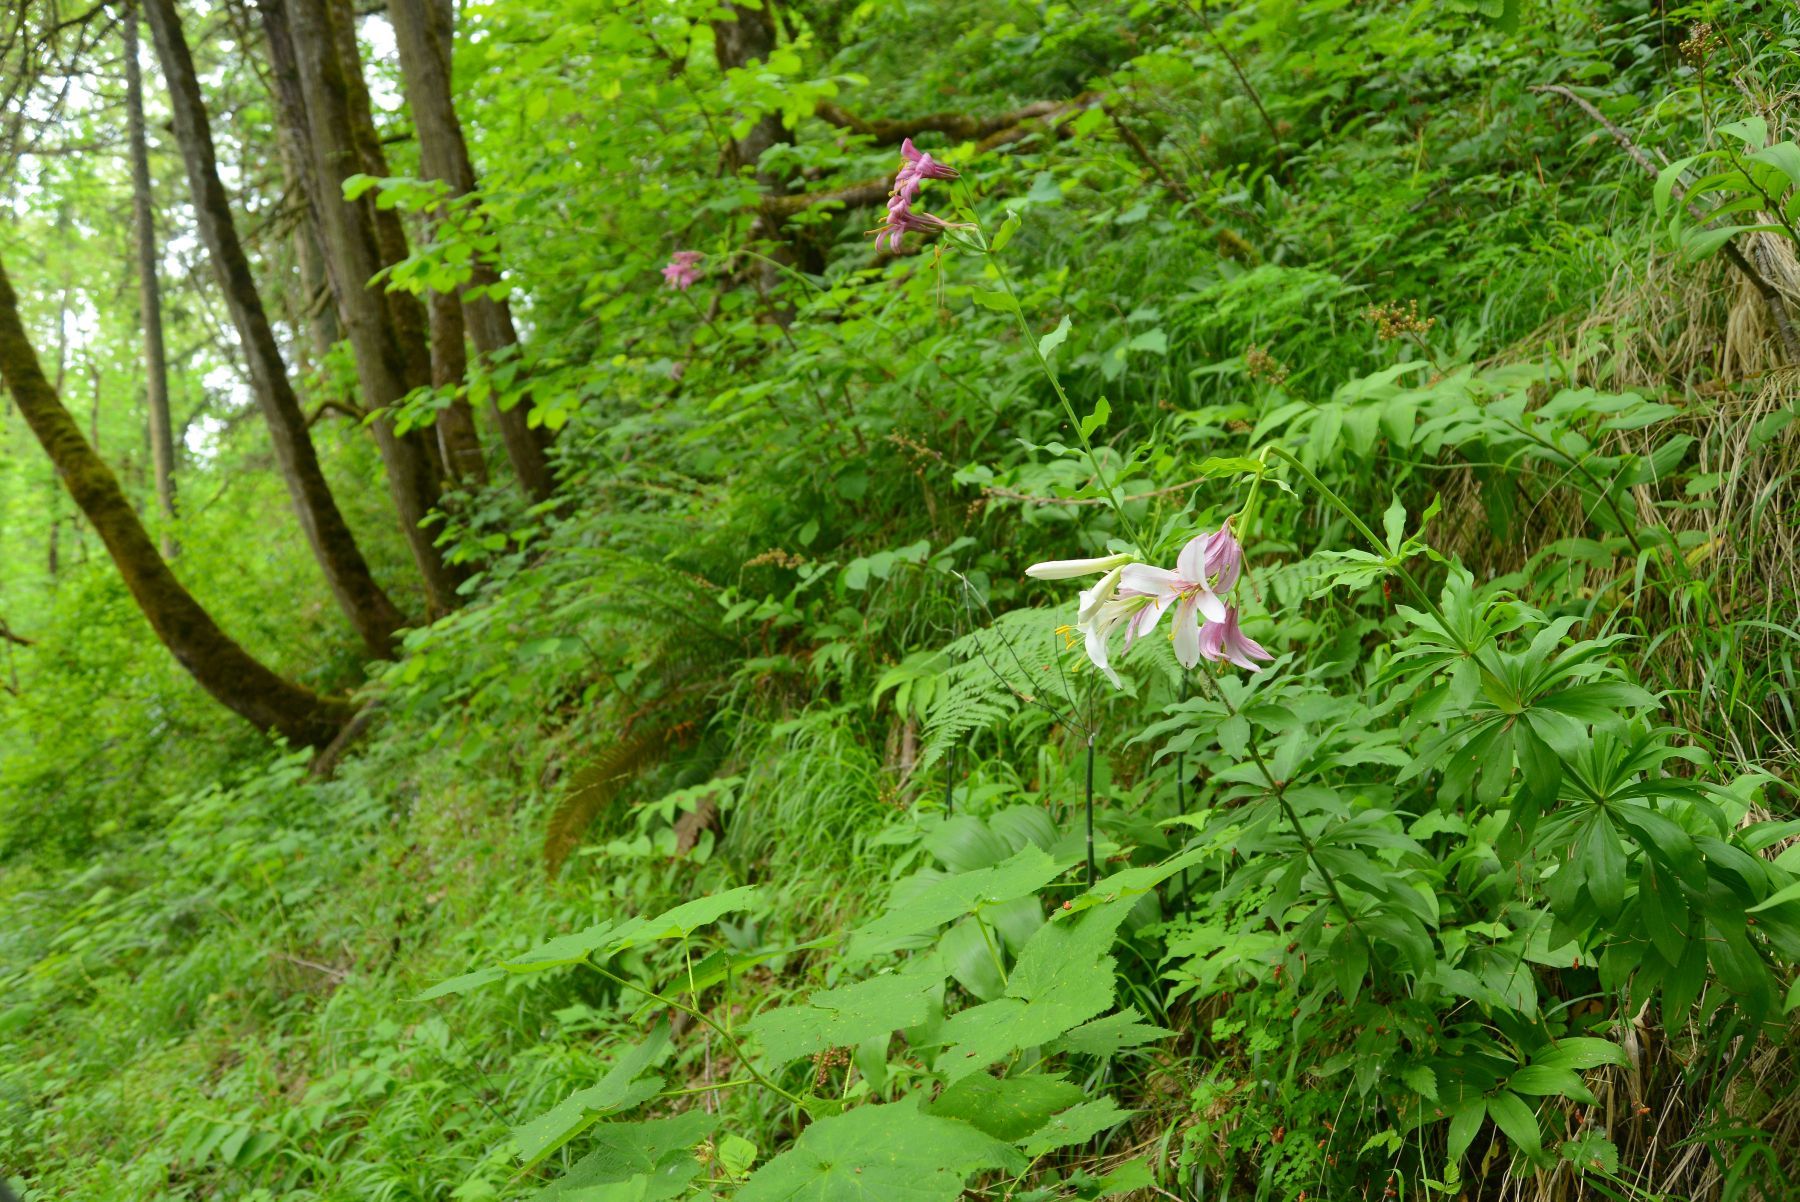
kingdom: Plantae
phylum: Tracheophyta
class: Liliopsida
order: Liliales
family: Liliaceae
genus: Lilium
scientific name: Lilium washingtonianum
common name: Washington lily
